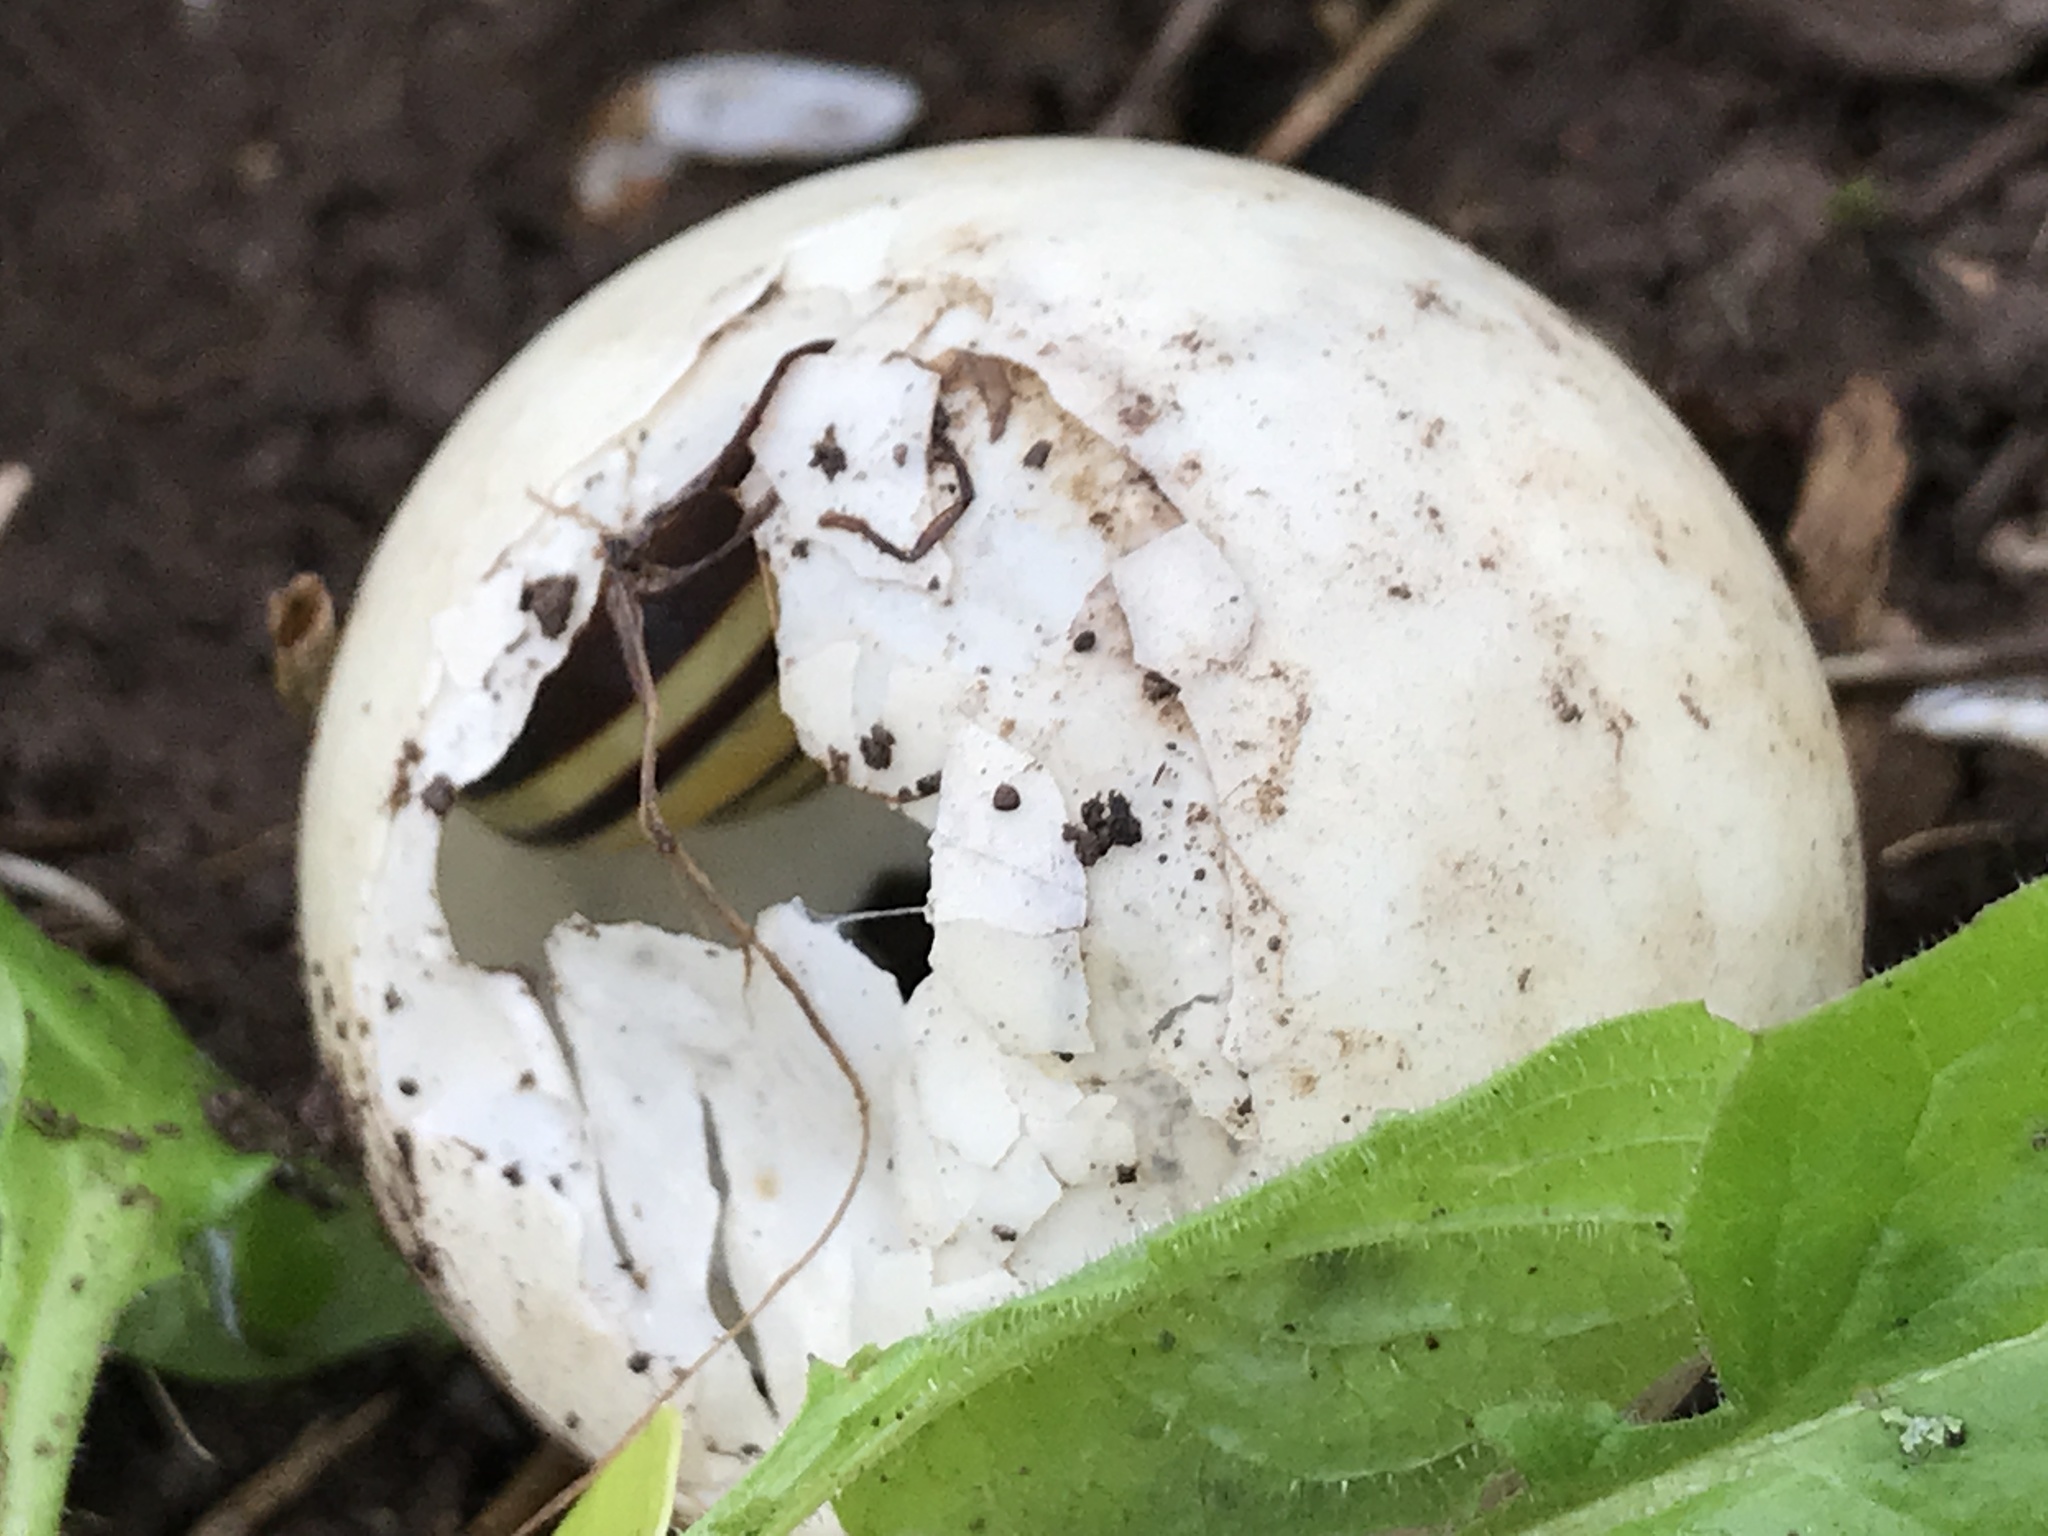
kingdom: Animalia
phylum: Mollusca
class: Gastropoda
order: Stylommatophora
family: Helicidae
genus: Cepaea
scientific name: Cepaea
